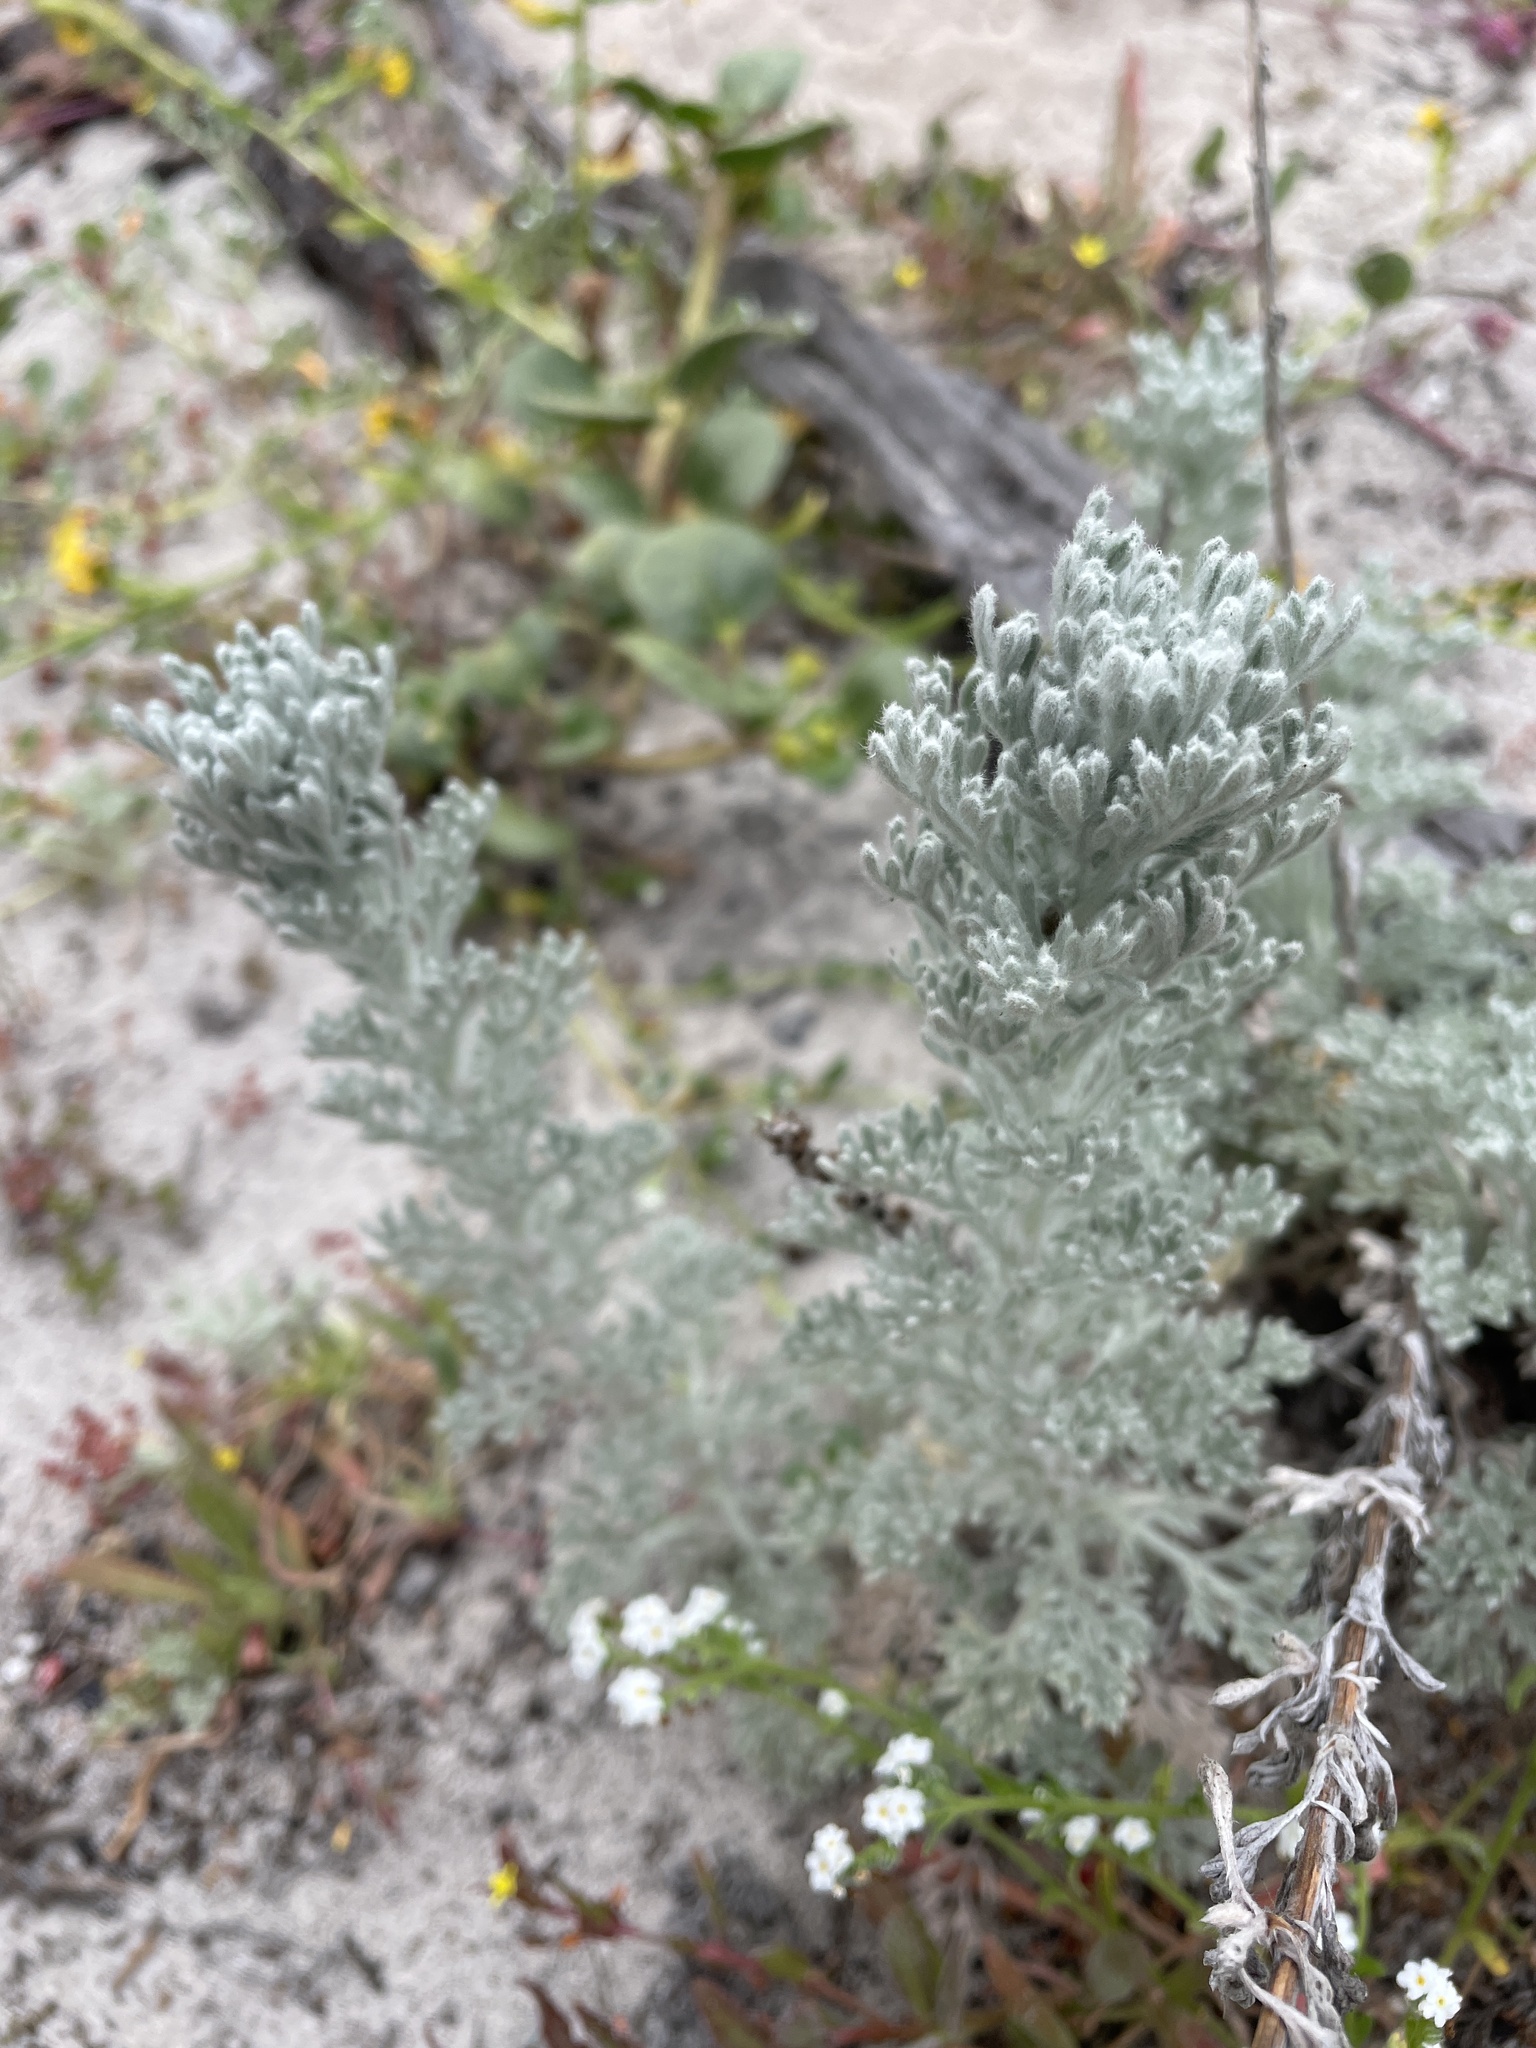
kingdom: Plantae
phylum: Tracheophyta
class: Magnoliopsida
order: Asterales
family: Asteraceae
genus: Artemisia
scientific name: Artemisia pycnocephala
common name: Coastal sagewort
